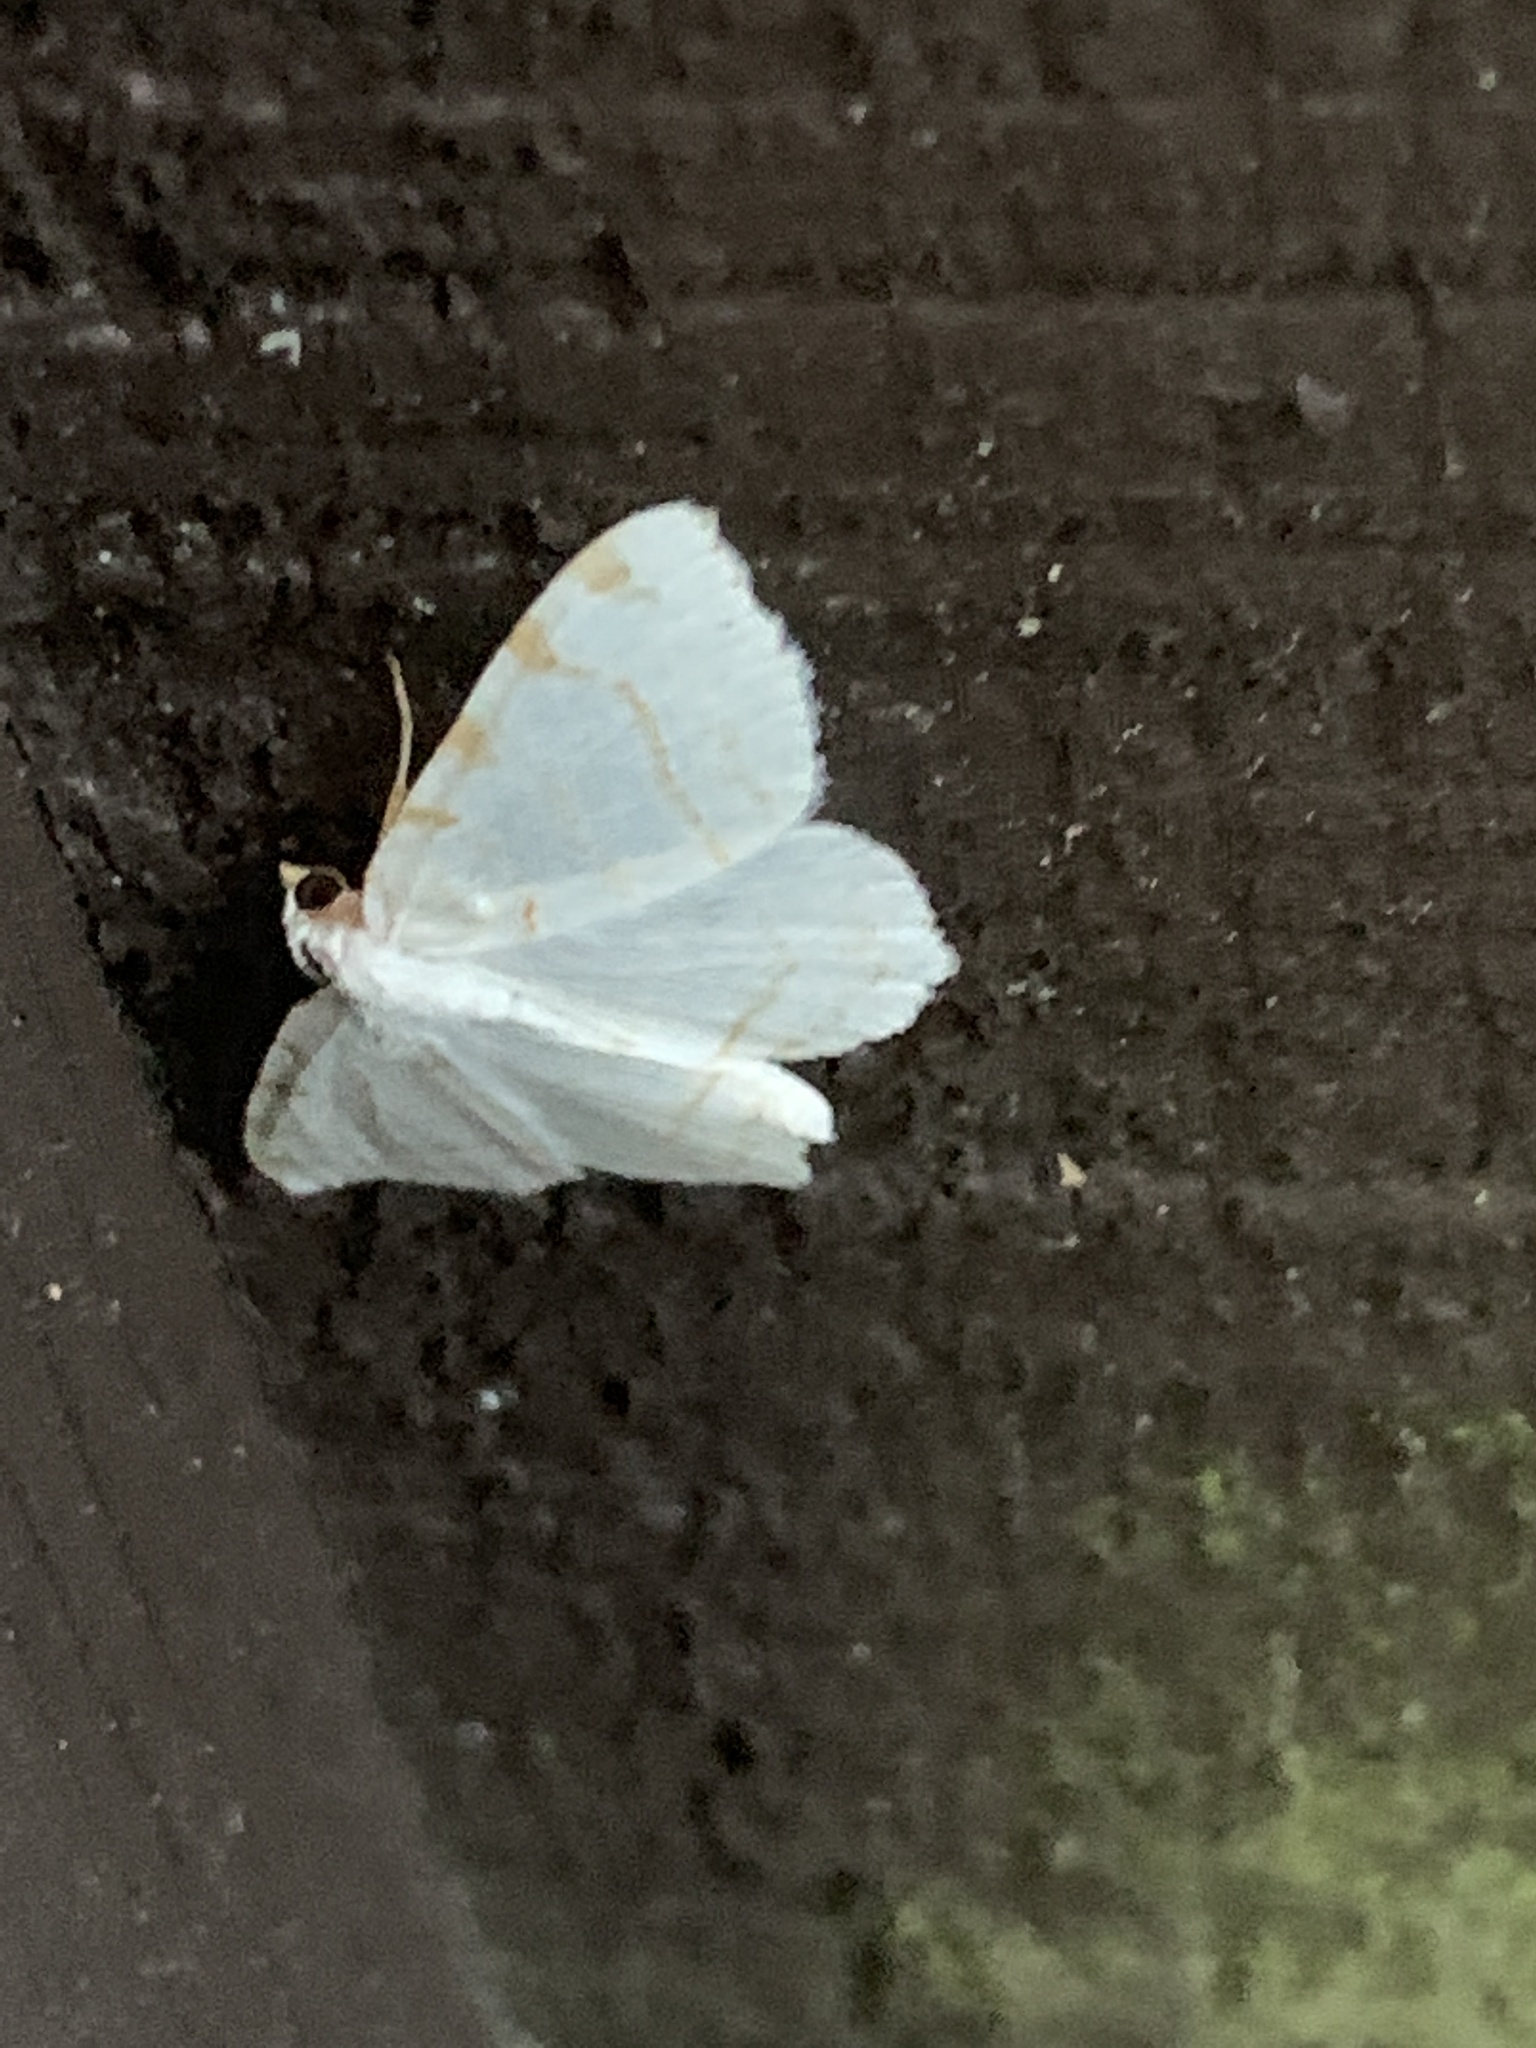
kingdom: Animalia
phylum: Arthropoda
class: Insecta
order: Lepidoptera
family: Geometridae
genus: Macaria
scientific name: Macaria pustularia
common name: Lesser maple spanworm moth
